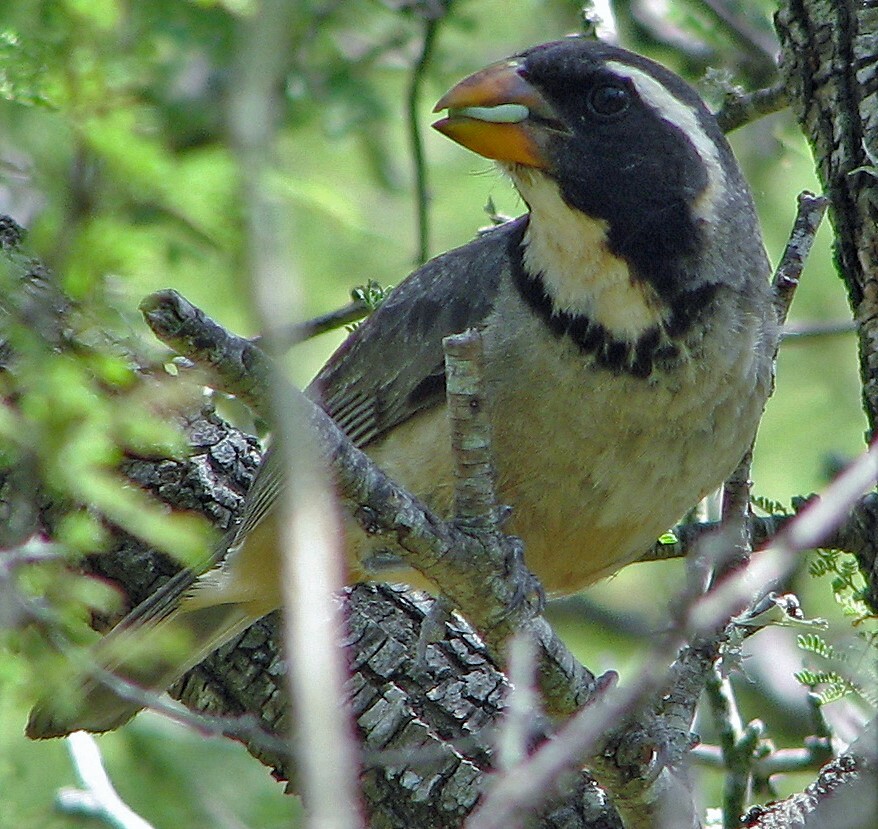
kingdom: Animalia
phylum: Chordata
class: Aves
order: Passeriformes
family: Thraupidae
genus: Saltator
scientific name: Saltator aurantiirostris
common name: Golden-billed saltator
